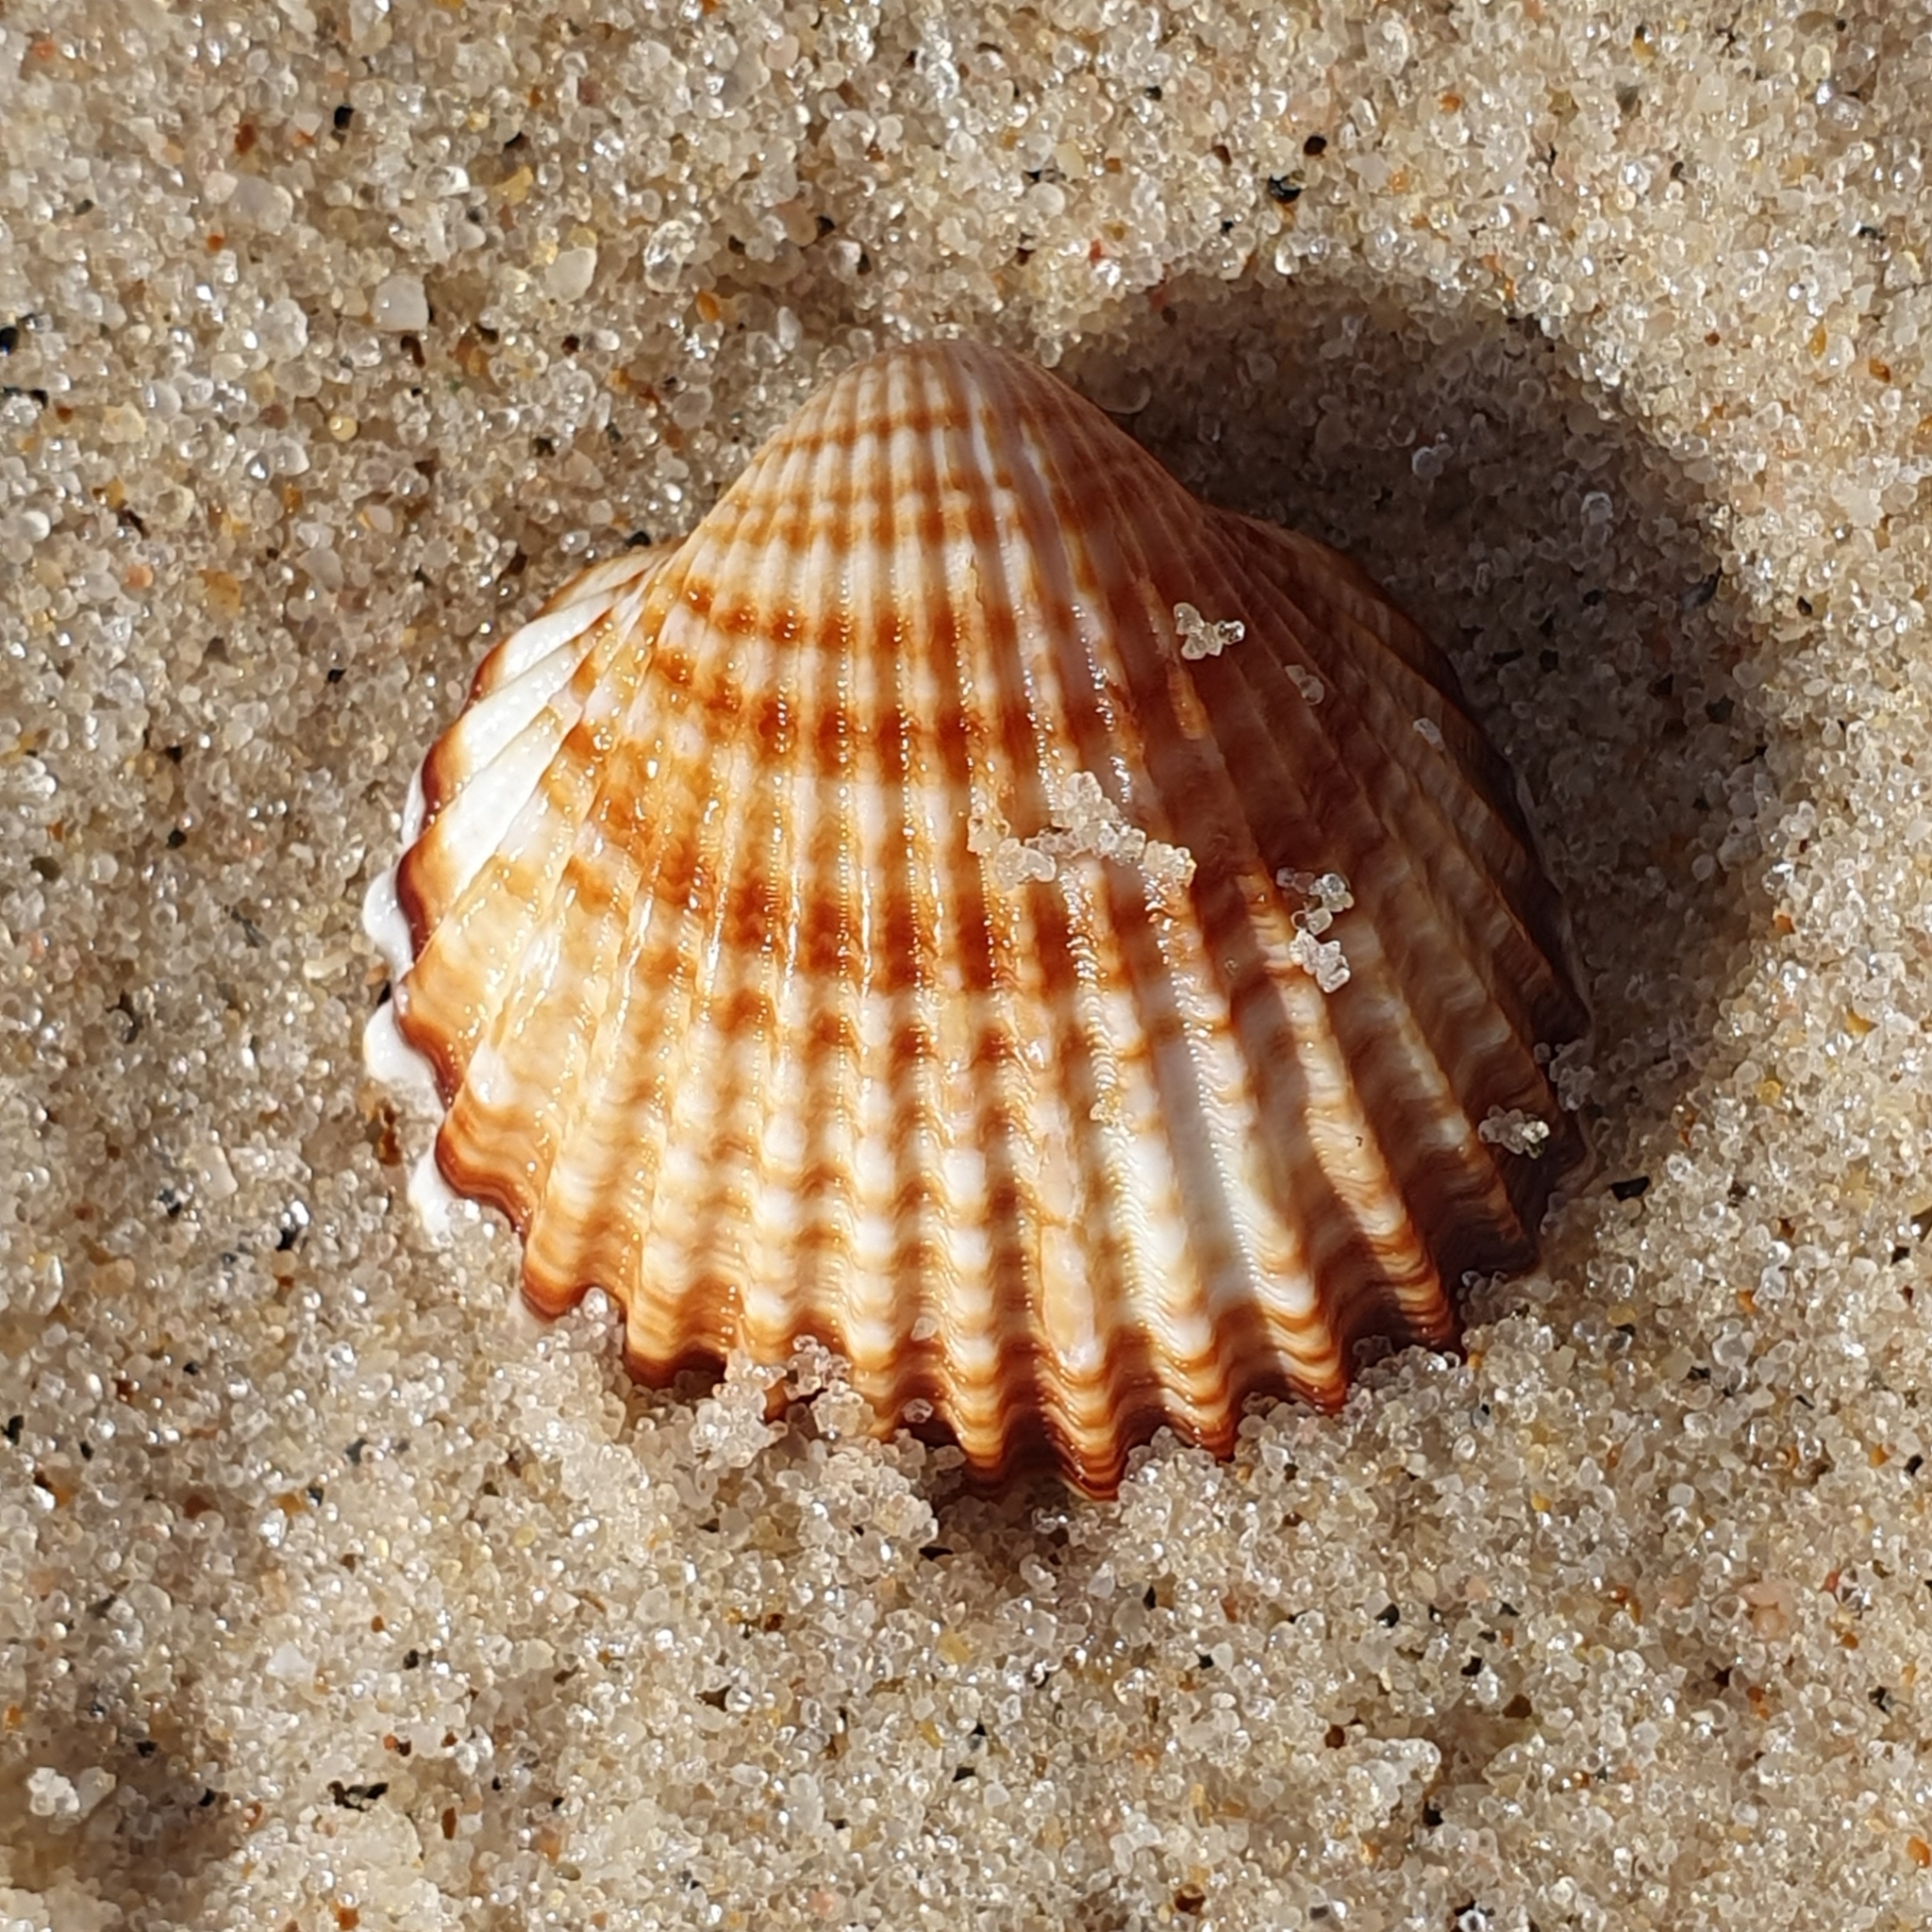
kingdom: Animalia
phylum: Mollusca
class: Bivalvia
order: Cardiida
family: Cardiidae
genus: Acanthocardia
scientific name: Acanthocardia tuberculata
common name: Rough cockle
